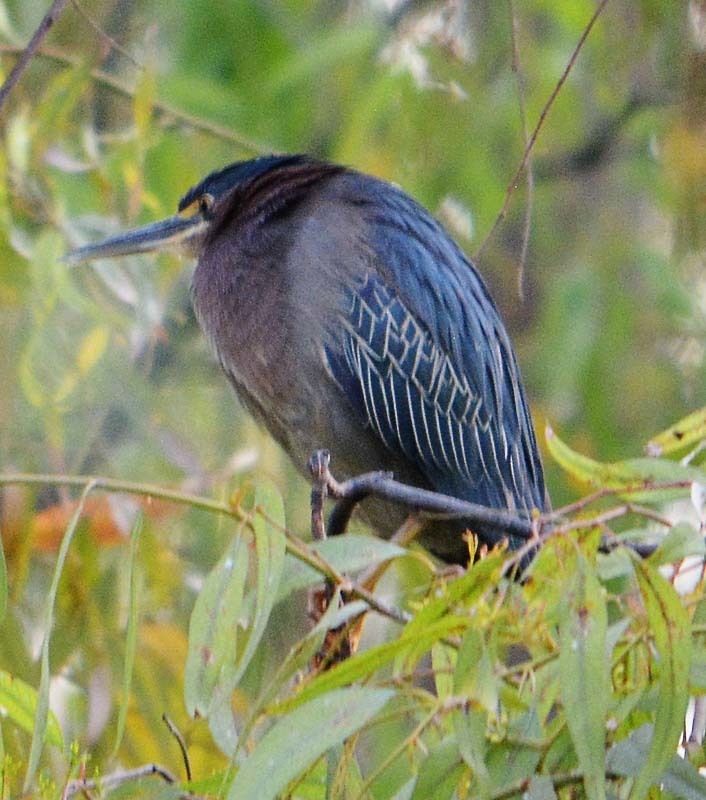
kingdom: Animalia
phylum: Chordata
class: Aves
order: Pelecaniformes
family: Ardeidae
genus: Butorides
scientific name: Butorides virescens
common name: Green heron
